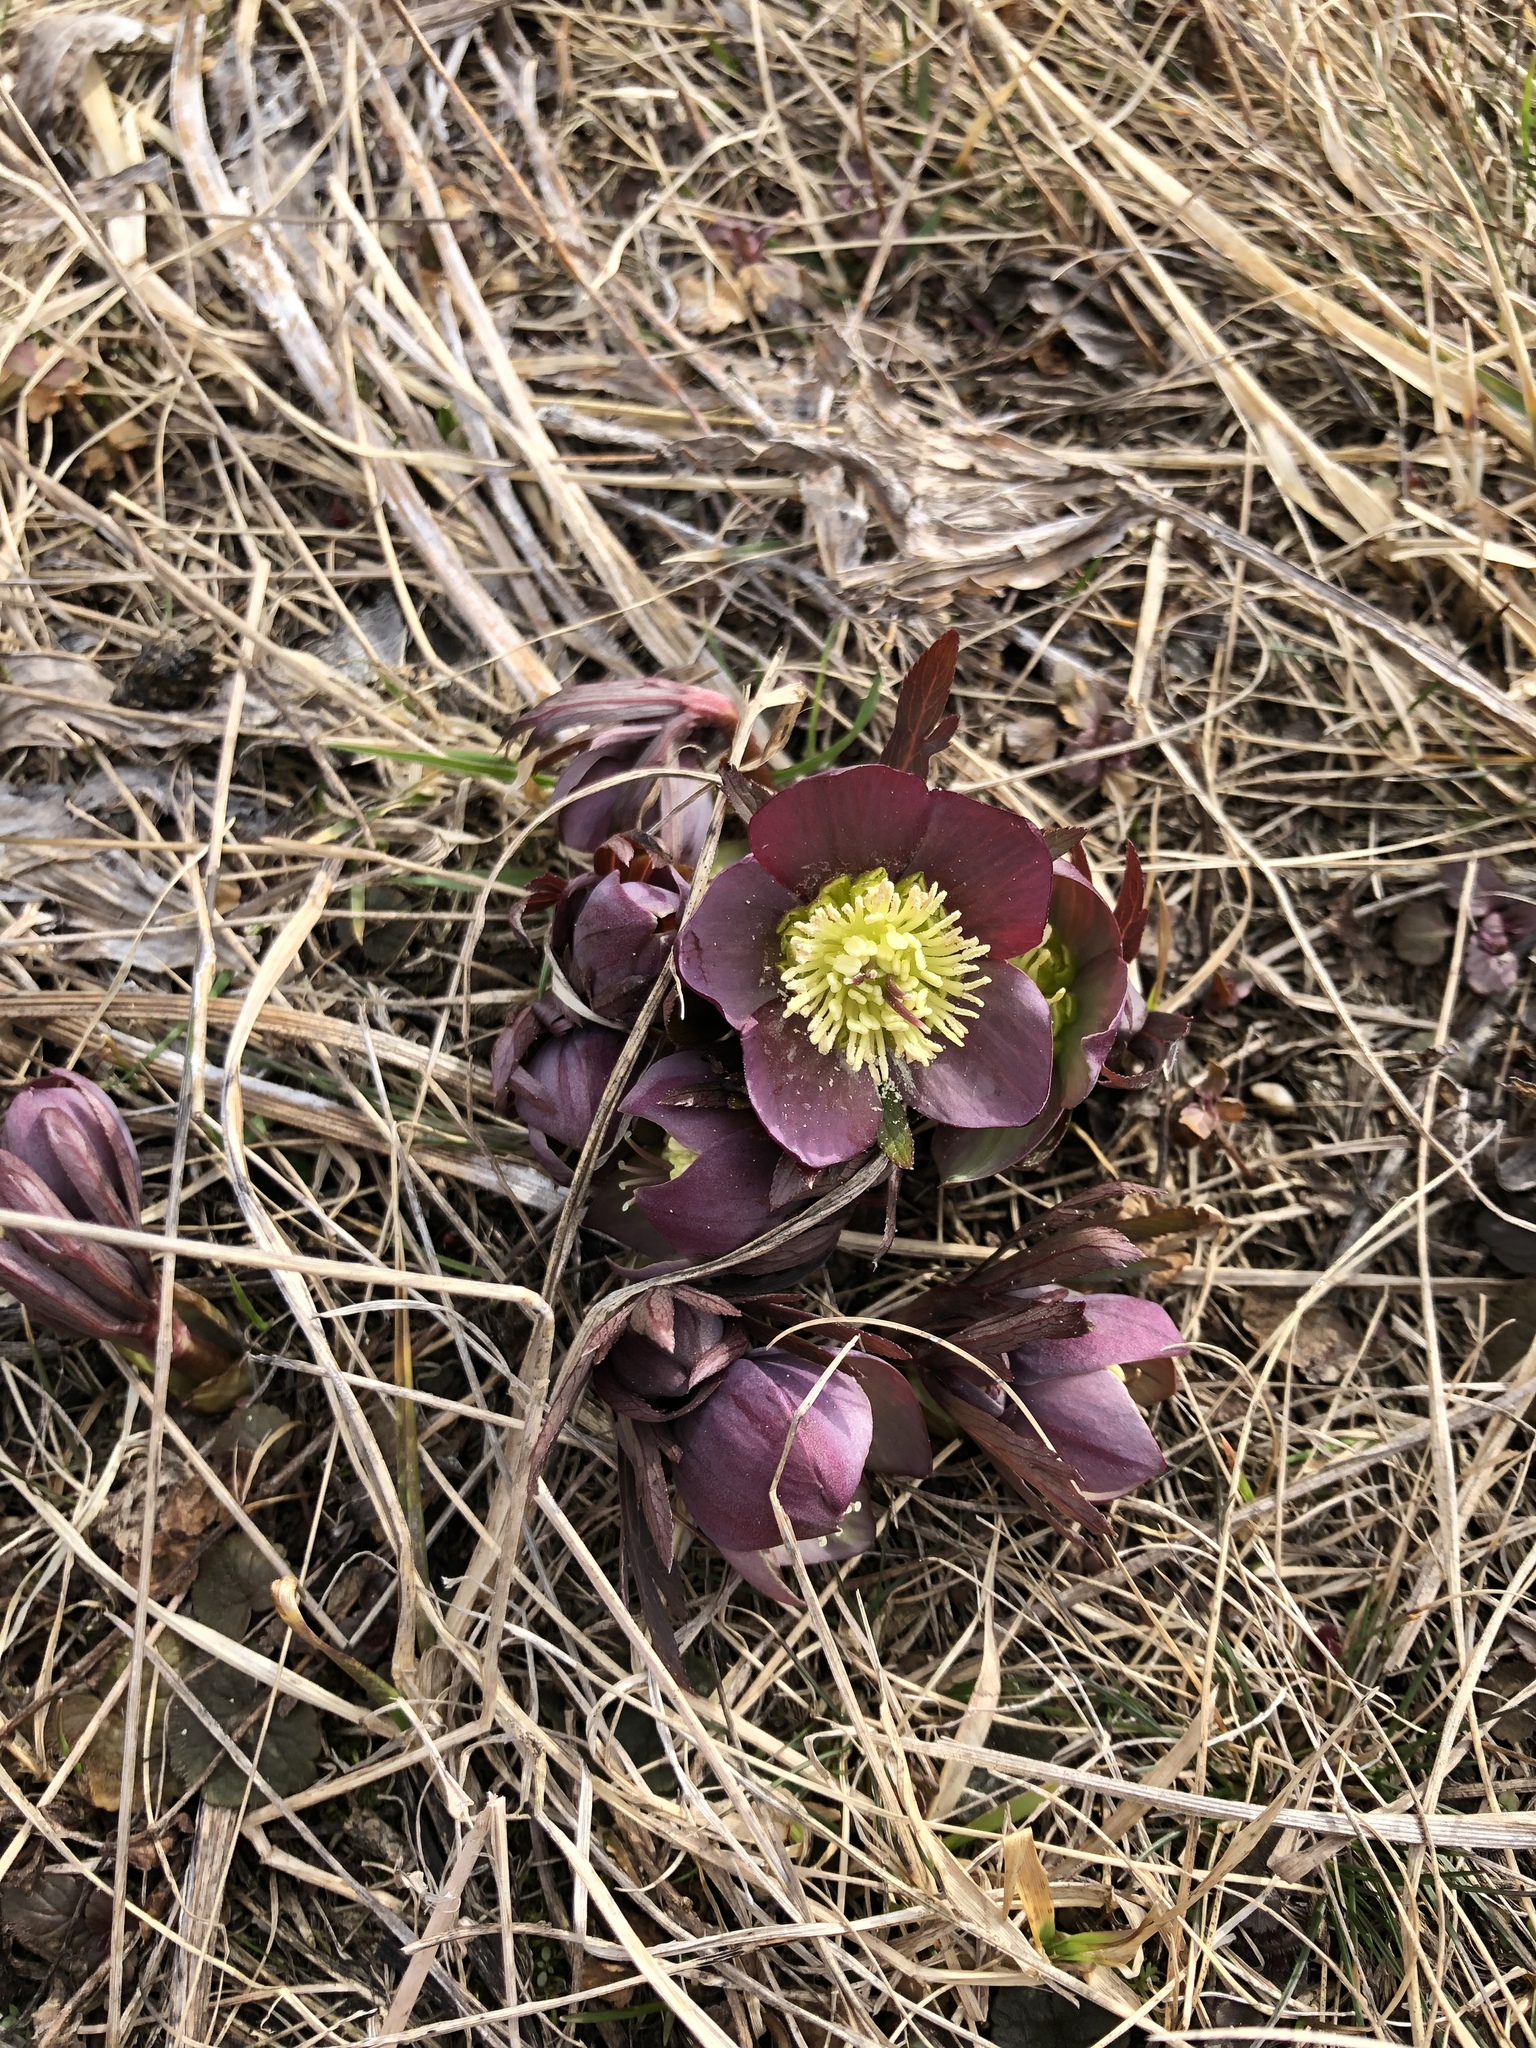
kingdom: Plantae
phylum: Tracheophyta
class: Magnoliopsida
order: Ranunculales
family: Ranunculaceae
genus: Helleborus
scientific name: Helleborus purpurascens
